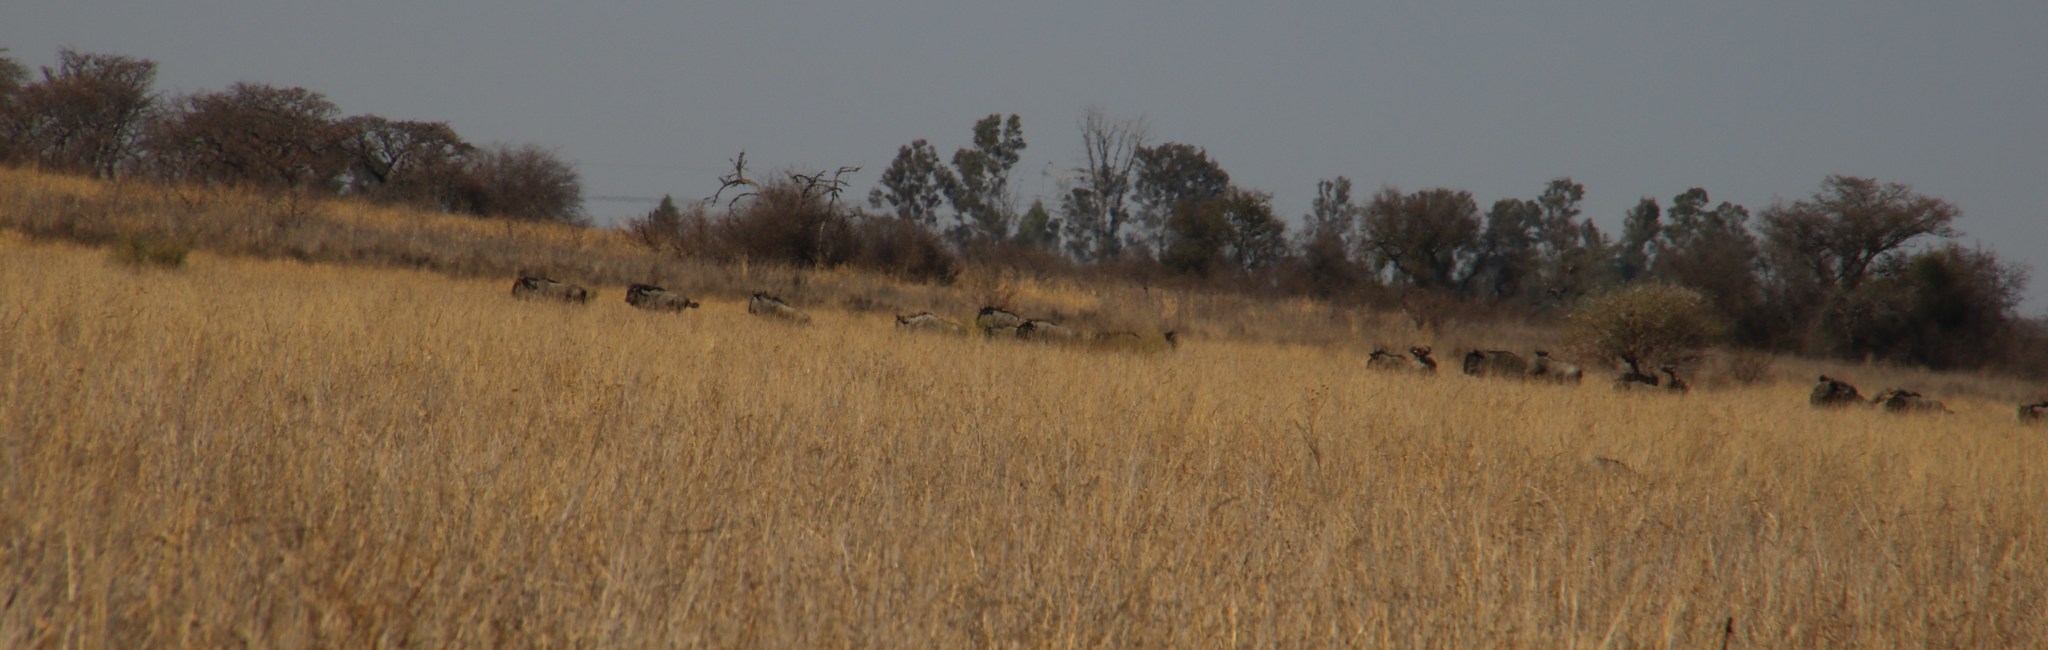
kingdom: Animalia
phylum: Chordata
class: Mammalia
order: Artiodactyla
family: Bovidae
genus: Connochaetes
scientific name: Connochaetes taurinus
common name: Blue wildebeest
